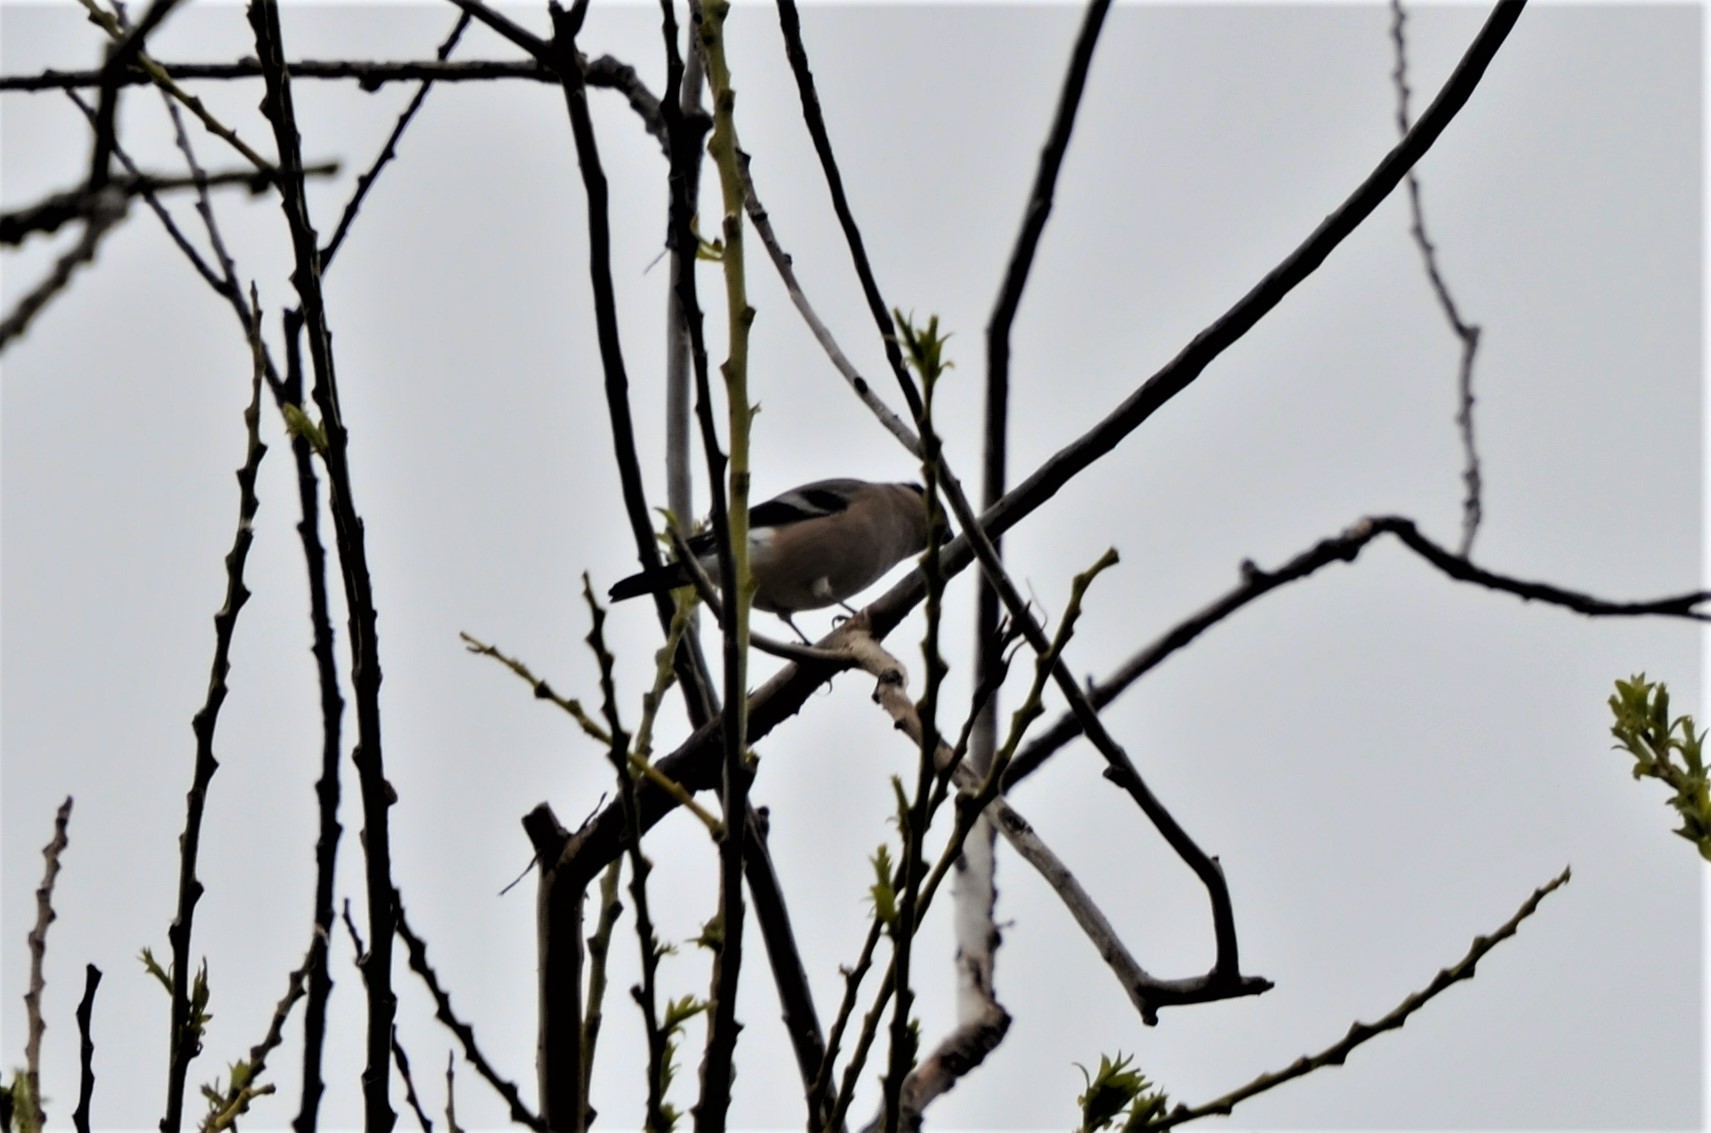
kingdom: Animalia
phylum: Chordata
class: Aves
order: Passeriformes
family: Fringillidae
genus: Pyrrhula
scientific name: Pyrrhula pyrrhula
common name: Eurasian bullfinch
